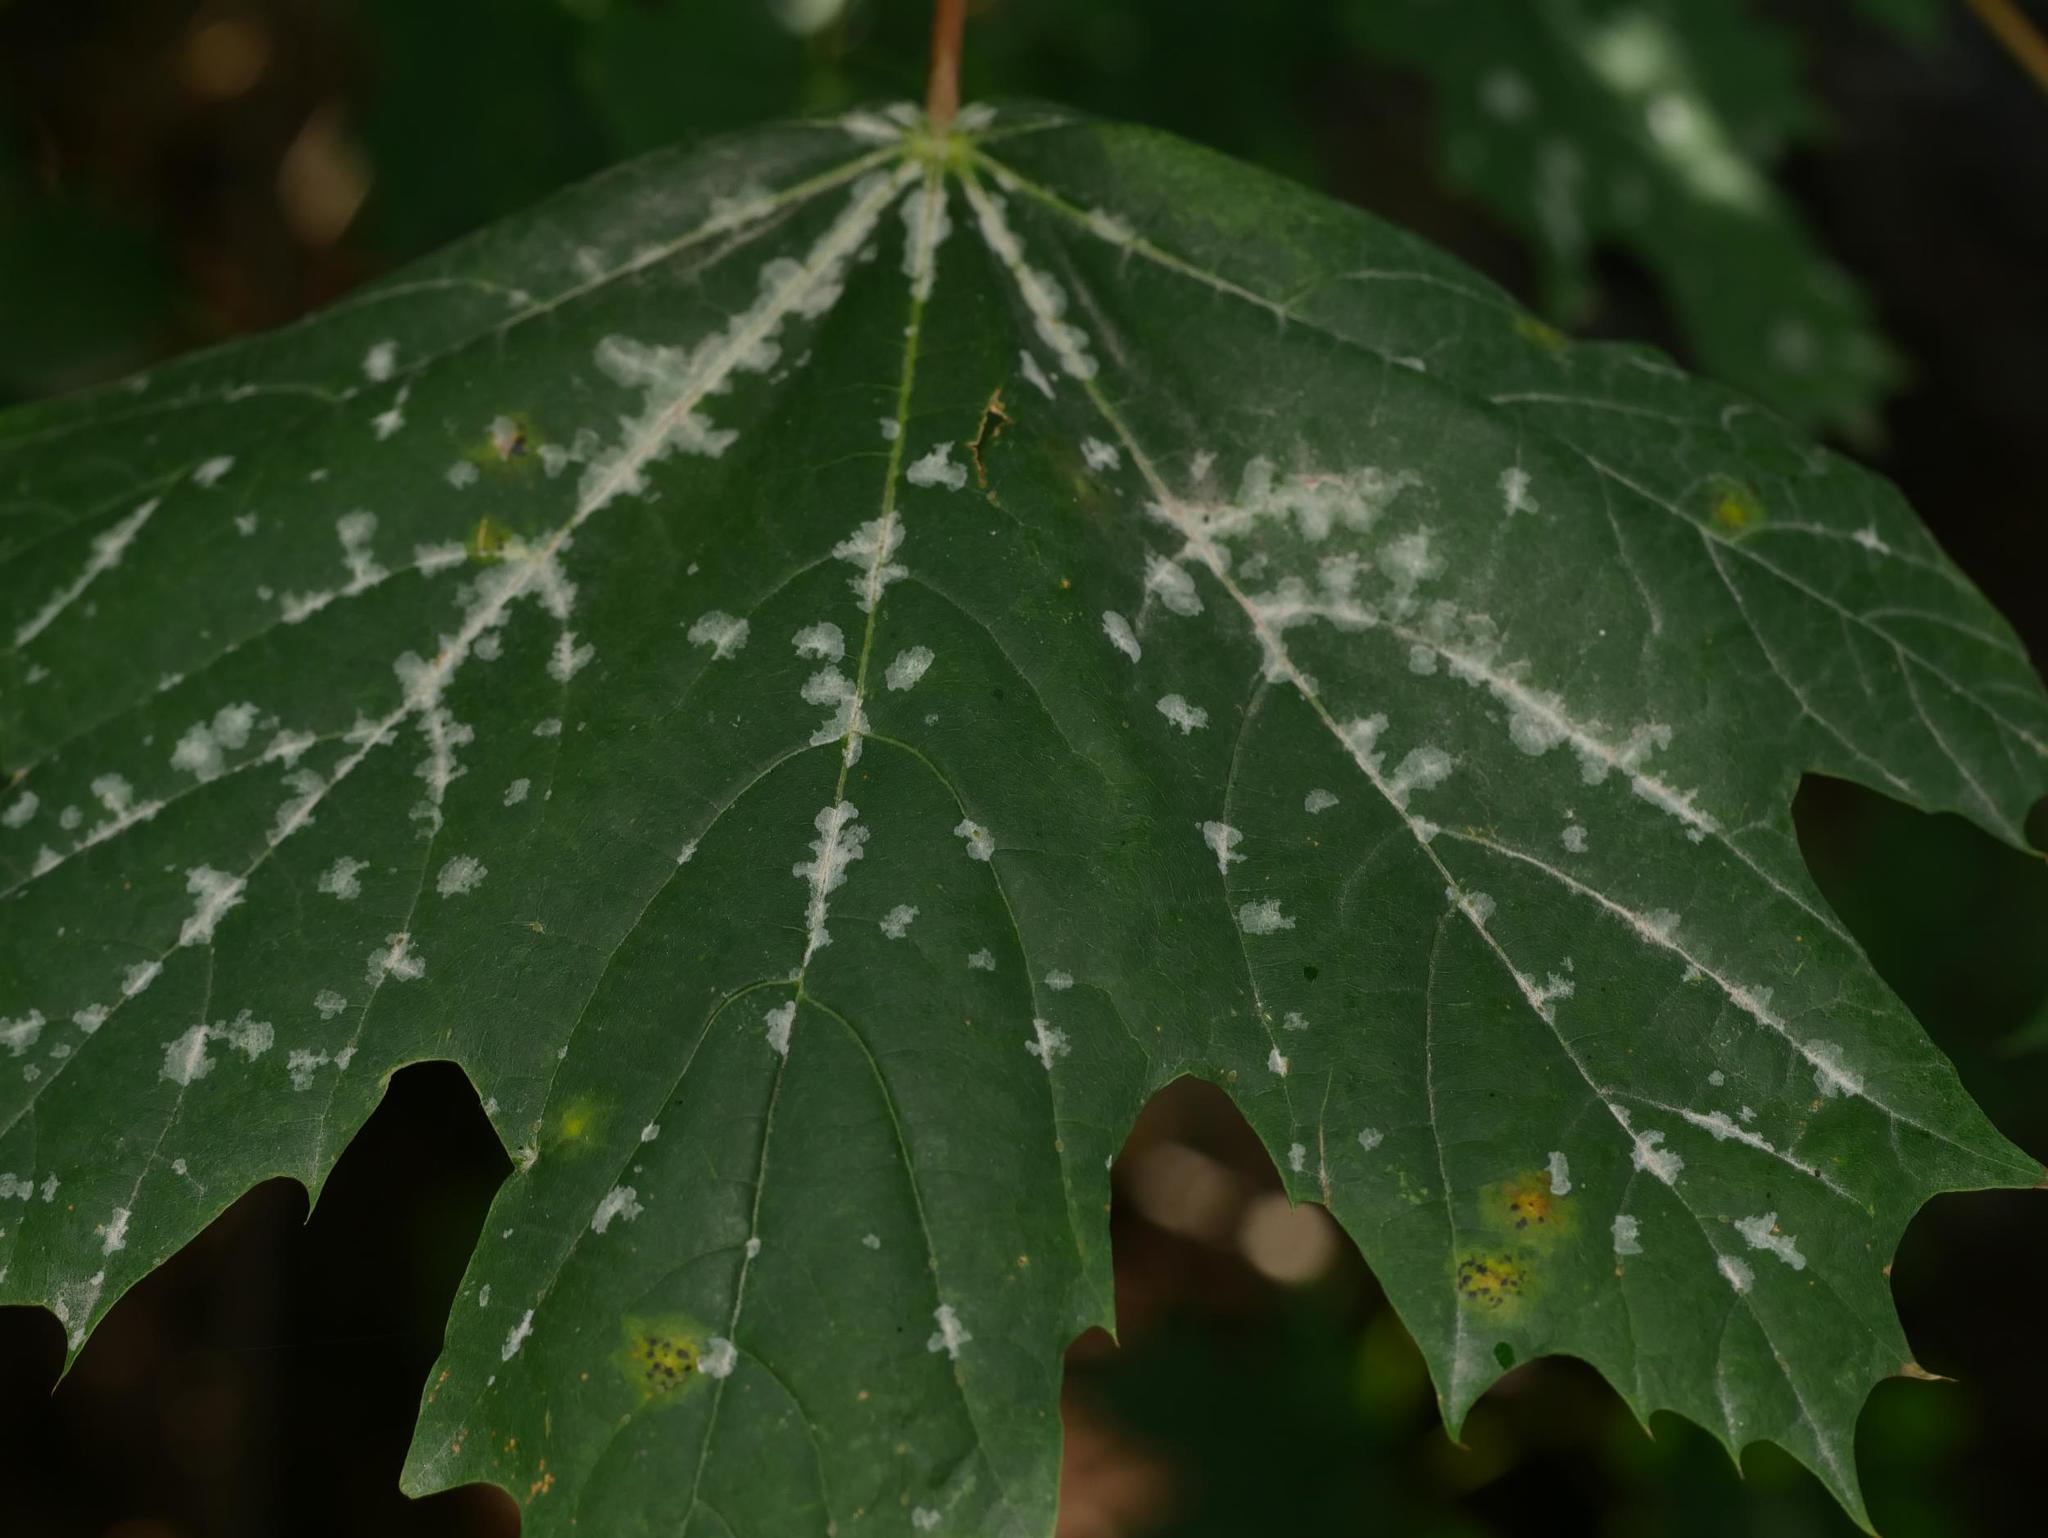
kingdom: Fungi
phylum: Ascomycota
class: Leotiomycetes
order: Helotiales
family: Erysiphaceae
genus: Sawadaea
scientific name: Sawadaea tulasnei
